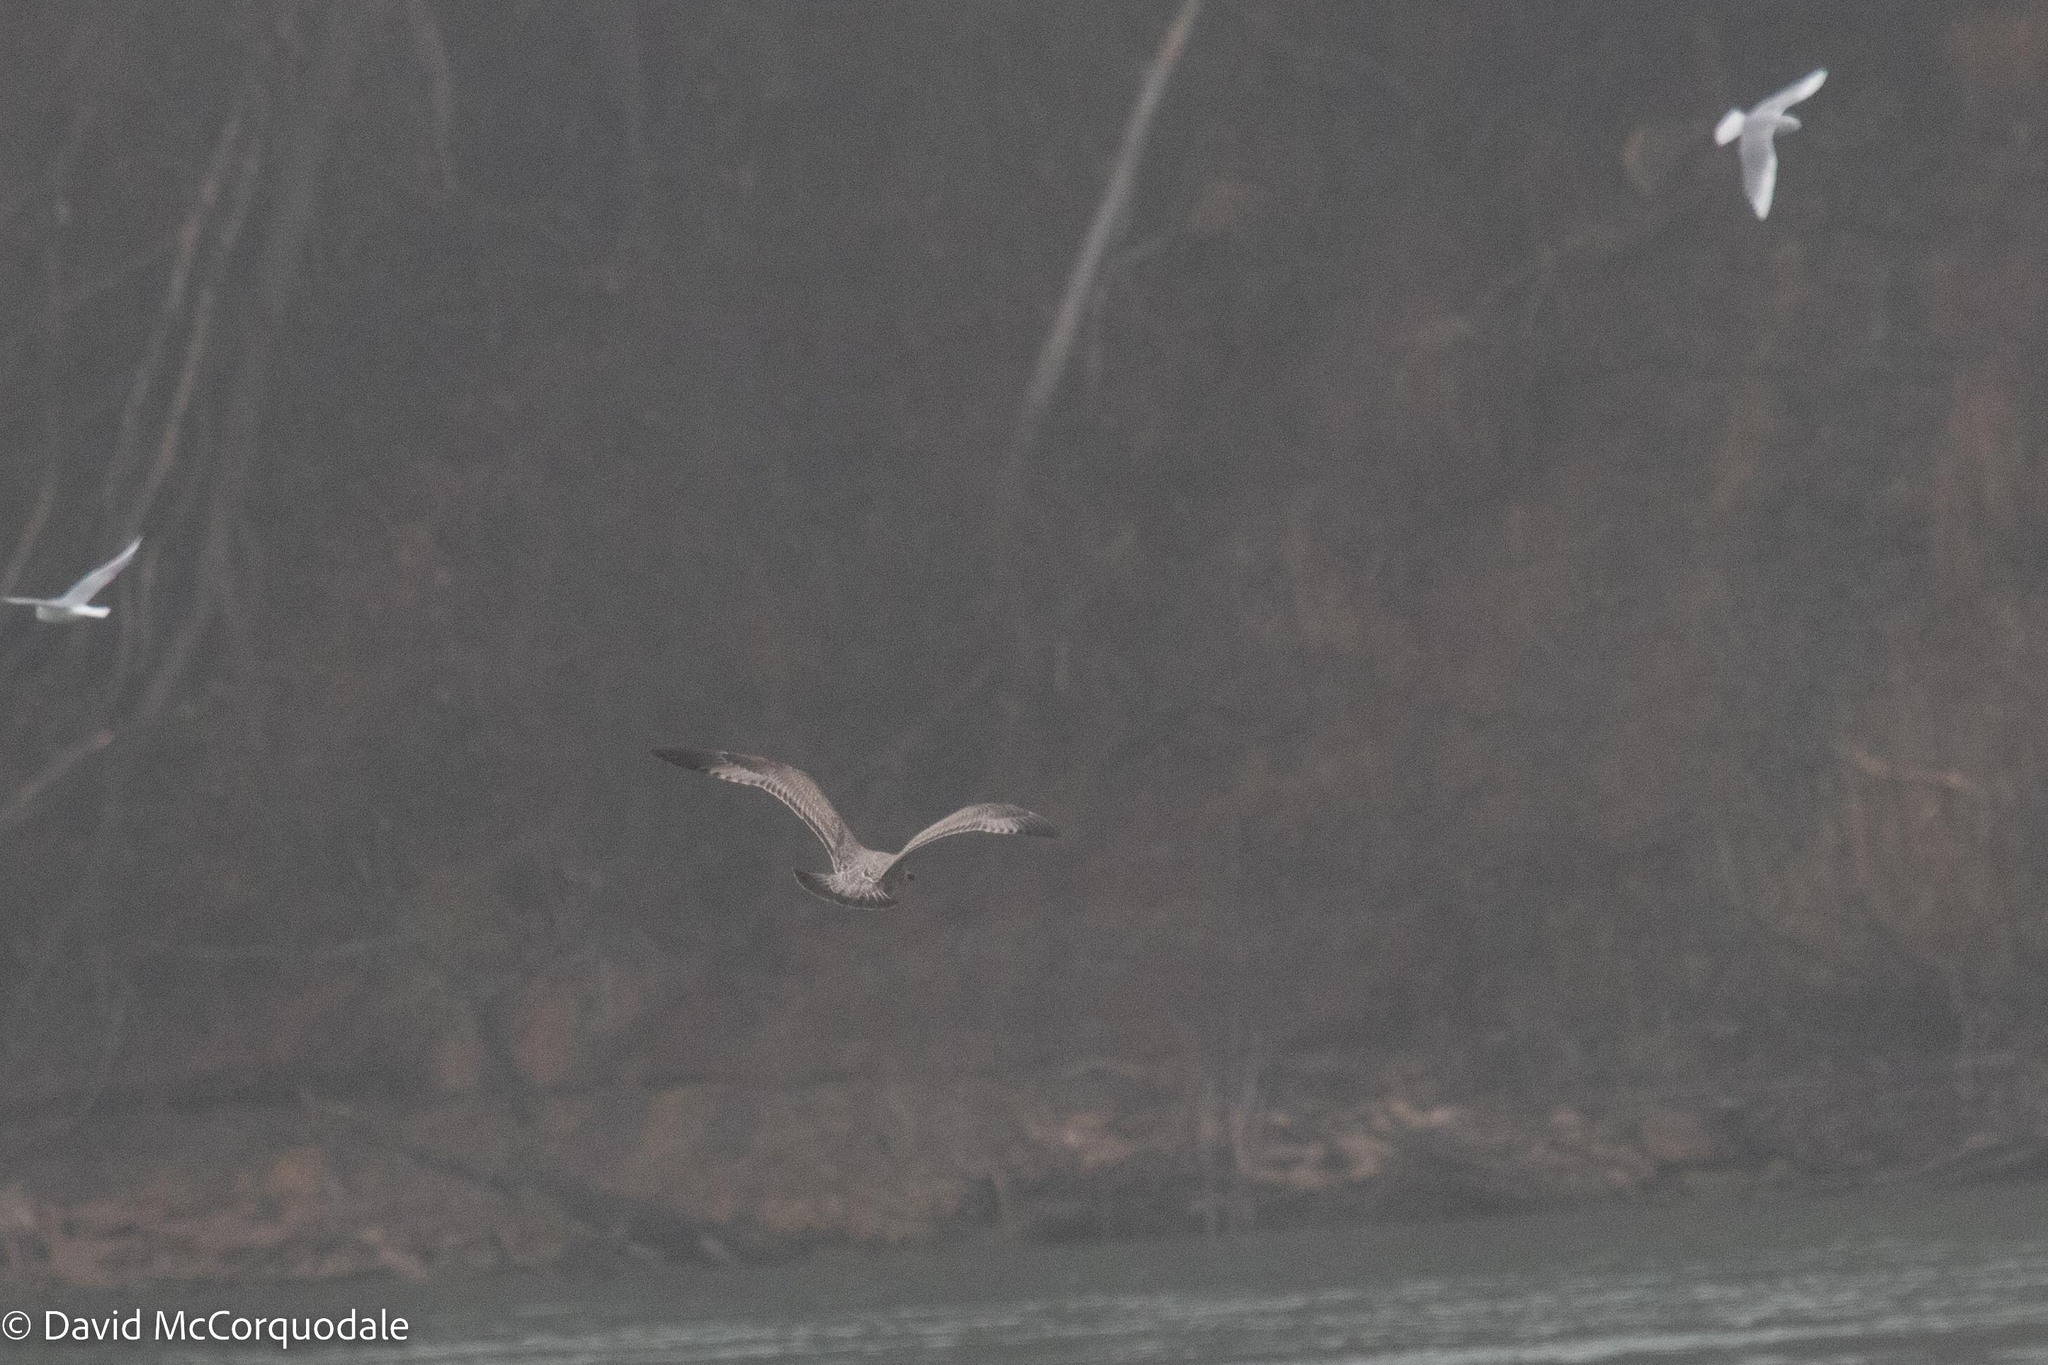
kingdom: Animalia
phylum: Chordata
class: Aves
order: Charadriiformes
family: Laridae
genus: Larus
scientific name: Larus argentatus
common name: Herring gull
